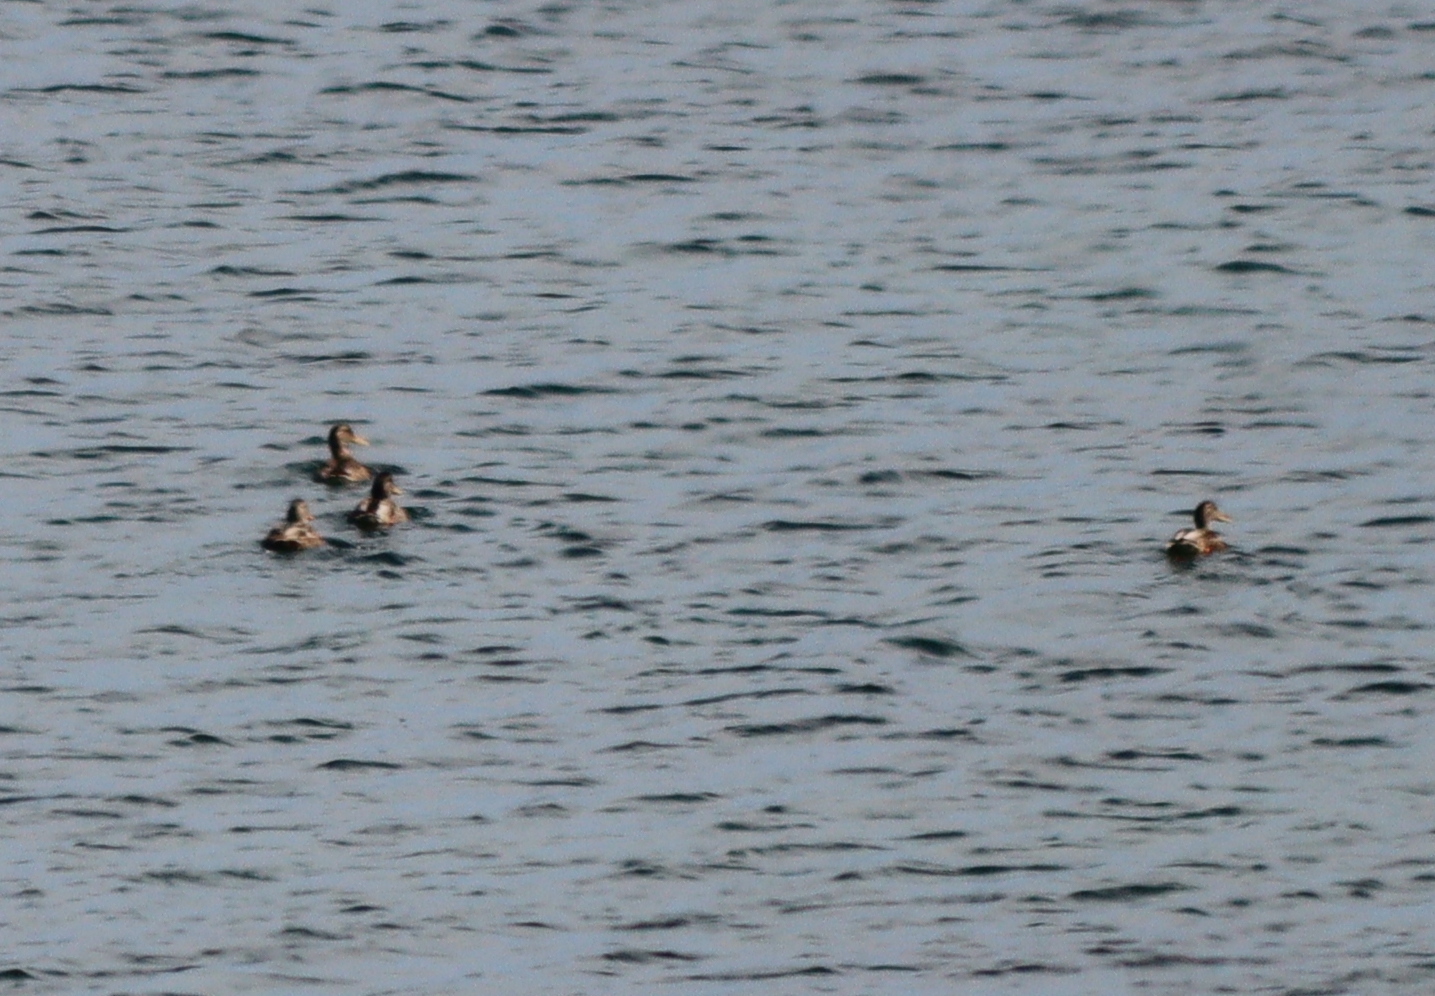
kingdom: Animalia
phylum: Chordata
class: Aves
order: Anseriformes
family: Anatidae
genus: Anas
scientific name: Anas platyrhynchos
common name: Mallard
